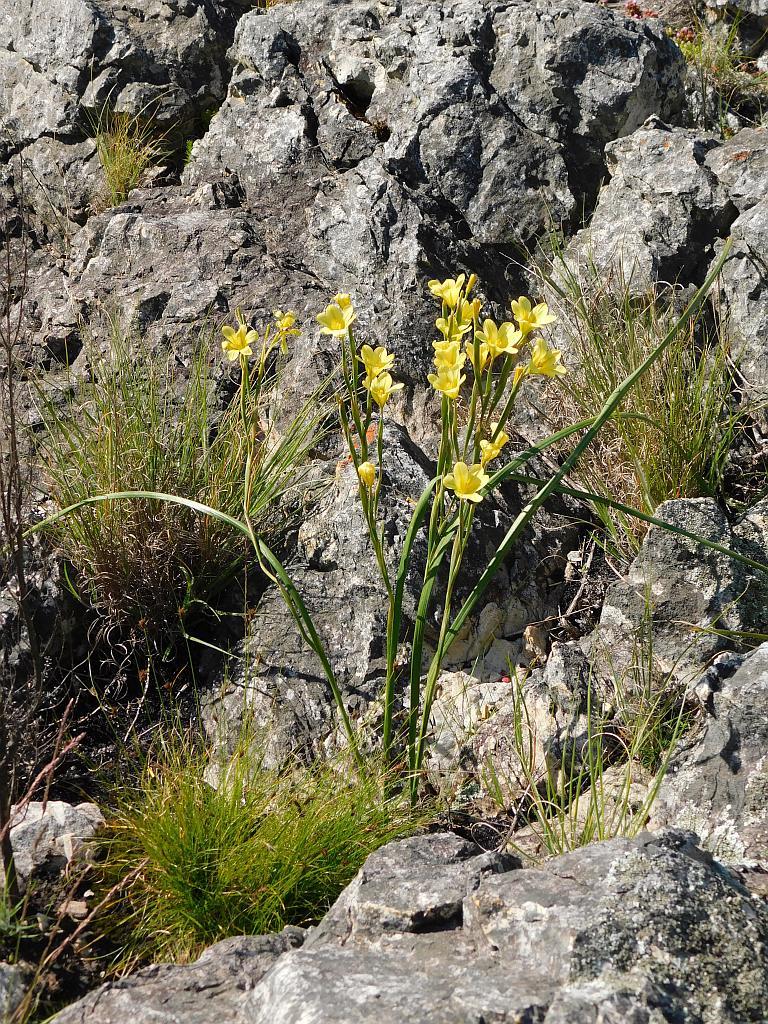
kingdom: Plantae
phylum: Tracheophyta
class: Liliopsida
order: Asparagales
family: Iridaceae
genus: Moraea
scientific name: Moraea ochroleuca
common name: Red tulp
